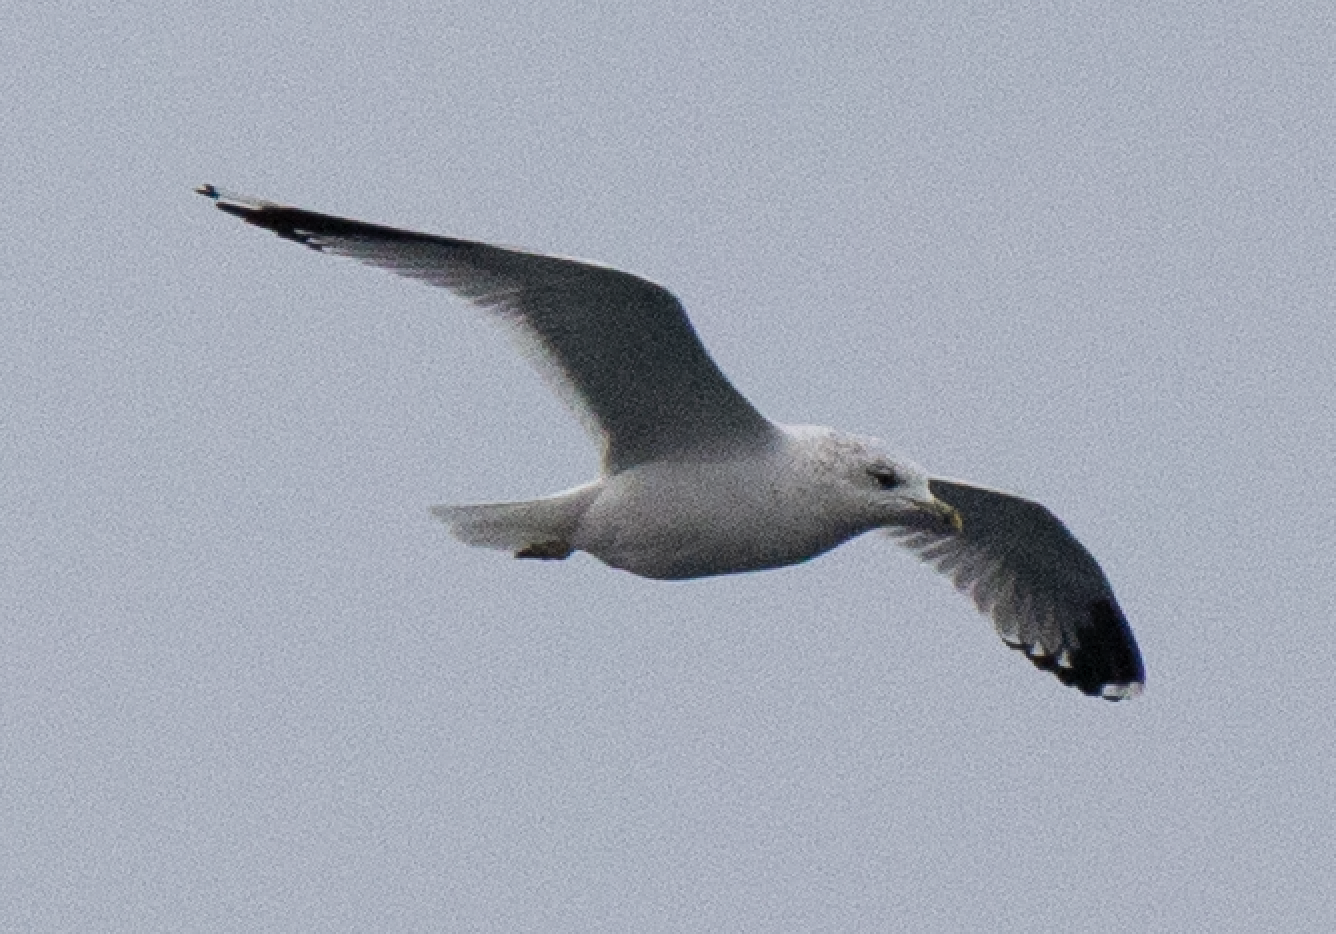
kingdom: Animalia
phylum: Chordata
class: Aves
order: Charadriiformes
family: Laridae
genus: Larus
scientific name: Larus canus
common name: Mew gull
